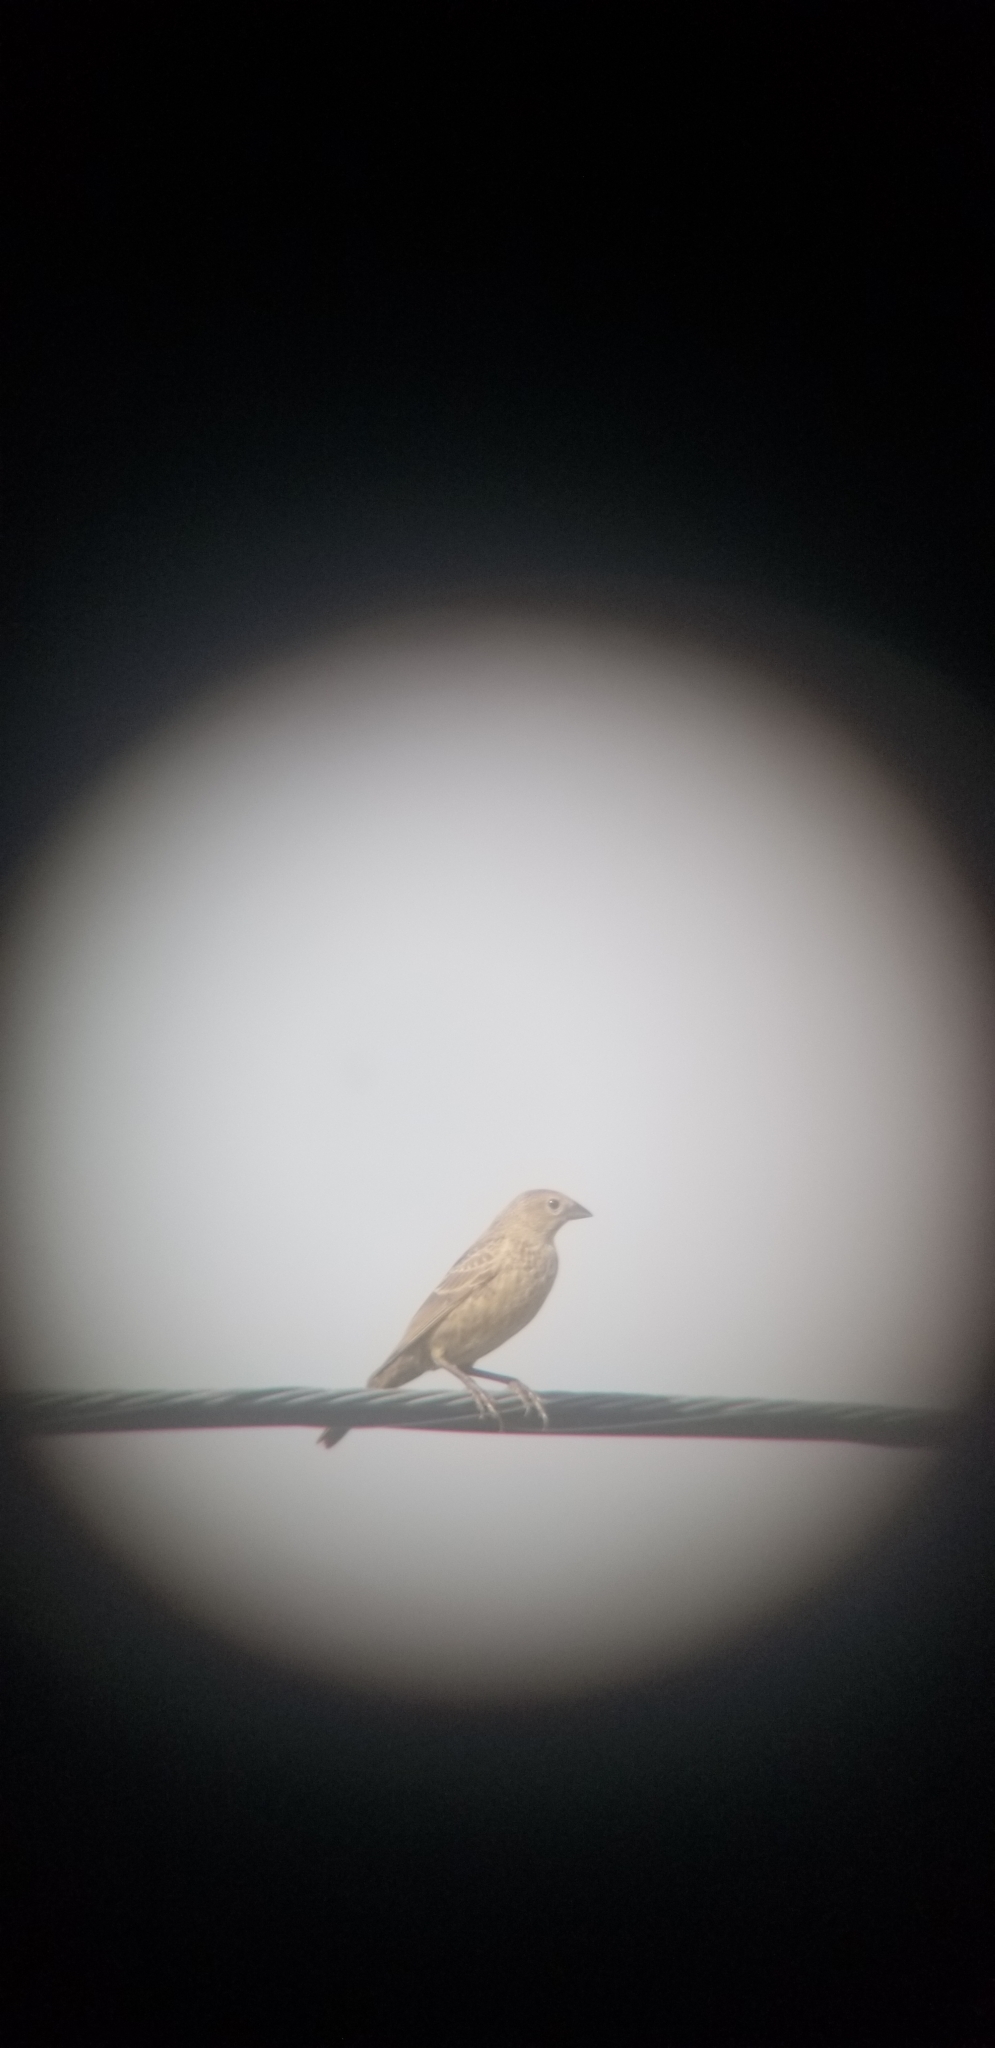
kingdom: Animalia
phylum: Chordata
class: Aves
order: Passeriformes
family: Icteridae
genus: Molothrus
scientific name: Molothrus ater
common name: Brown-headed cowbird
